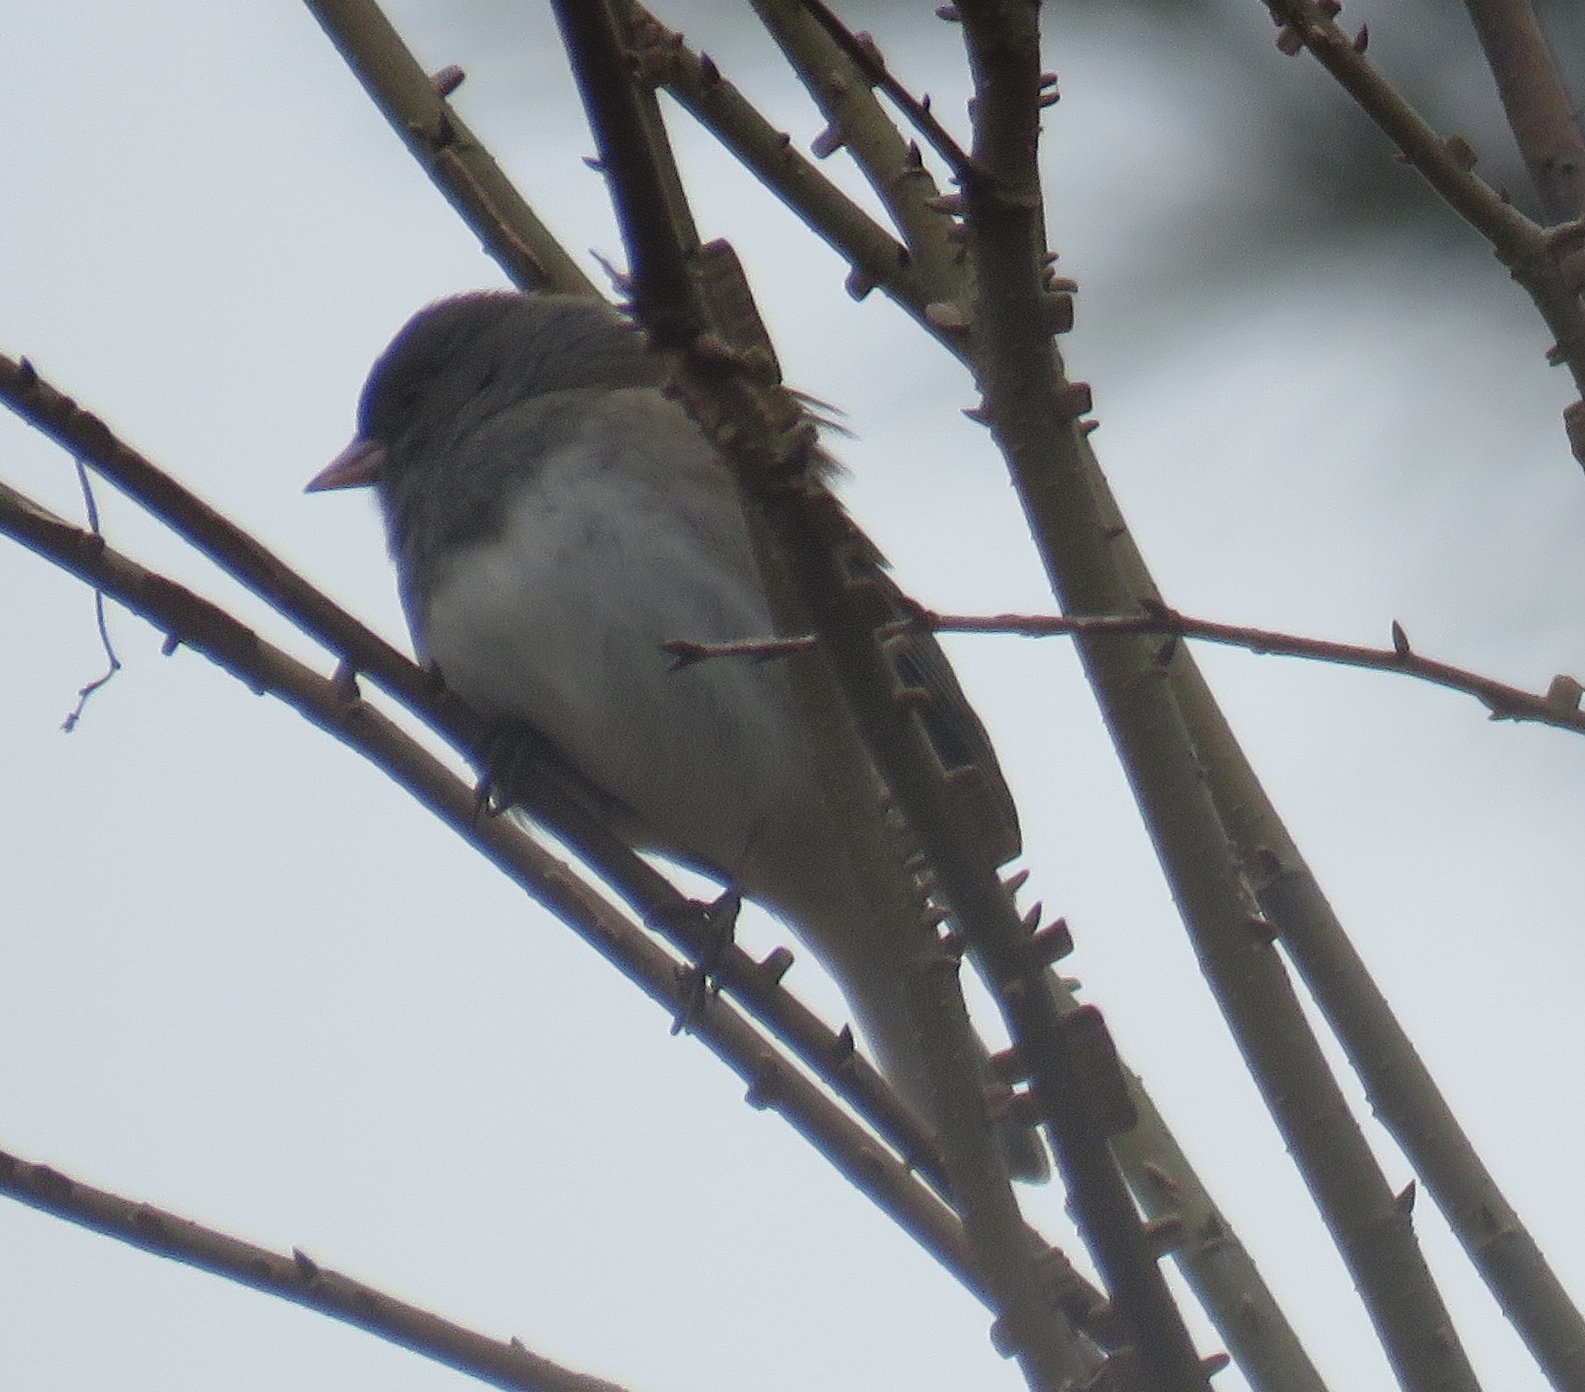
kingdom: Animalia
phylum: Chordata
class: Aves
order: Passeriformes
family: Passerellidae
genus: Junco
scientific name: Junco hyemalis
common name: Dark-eyed junco
